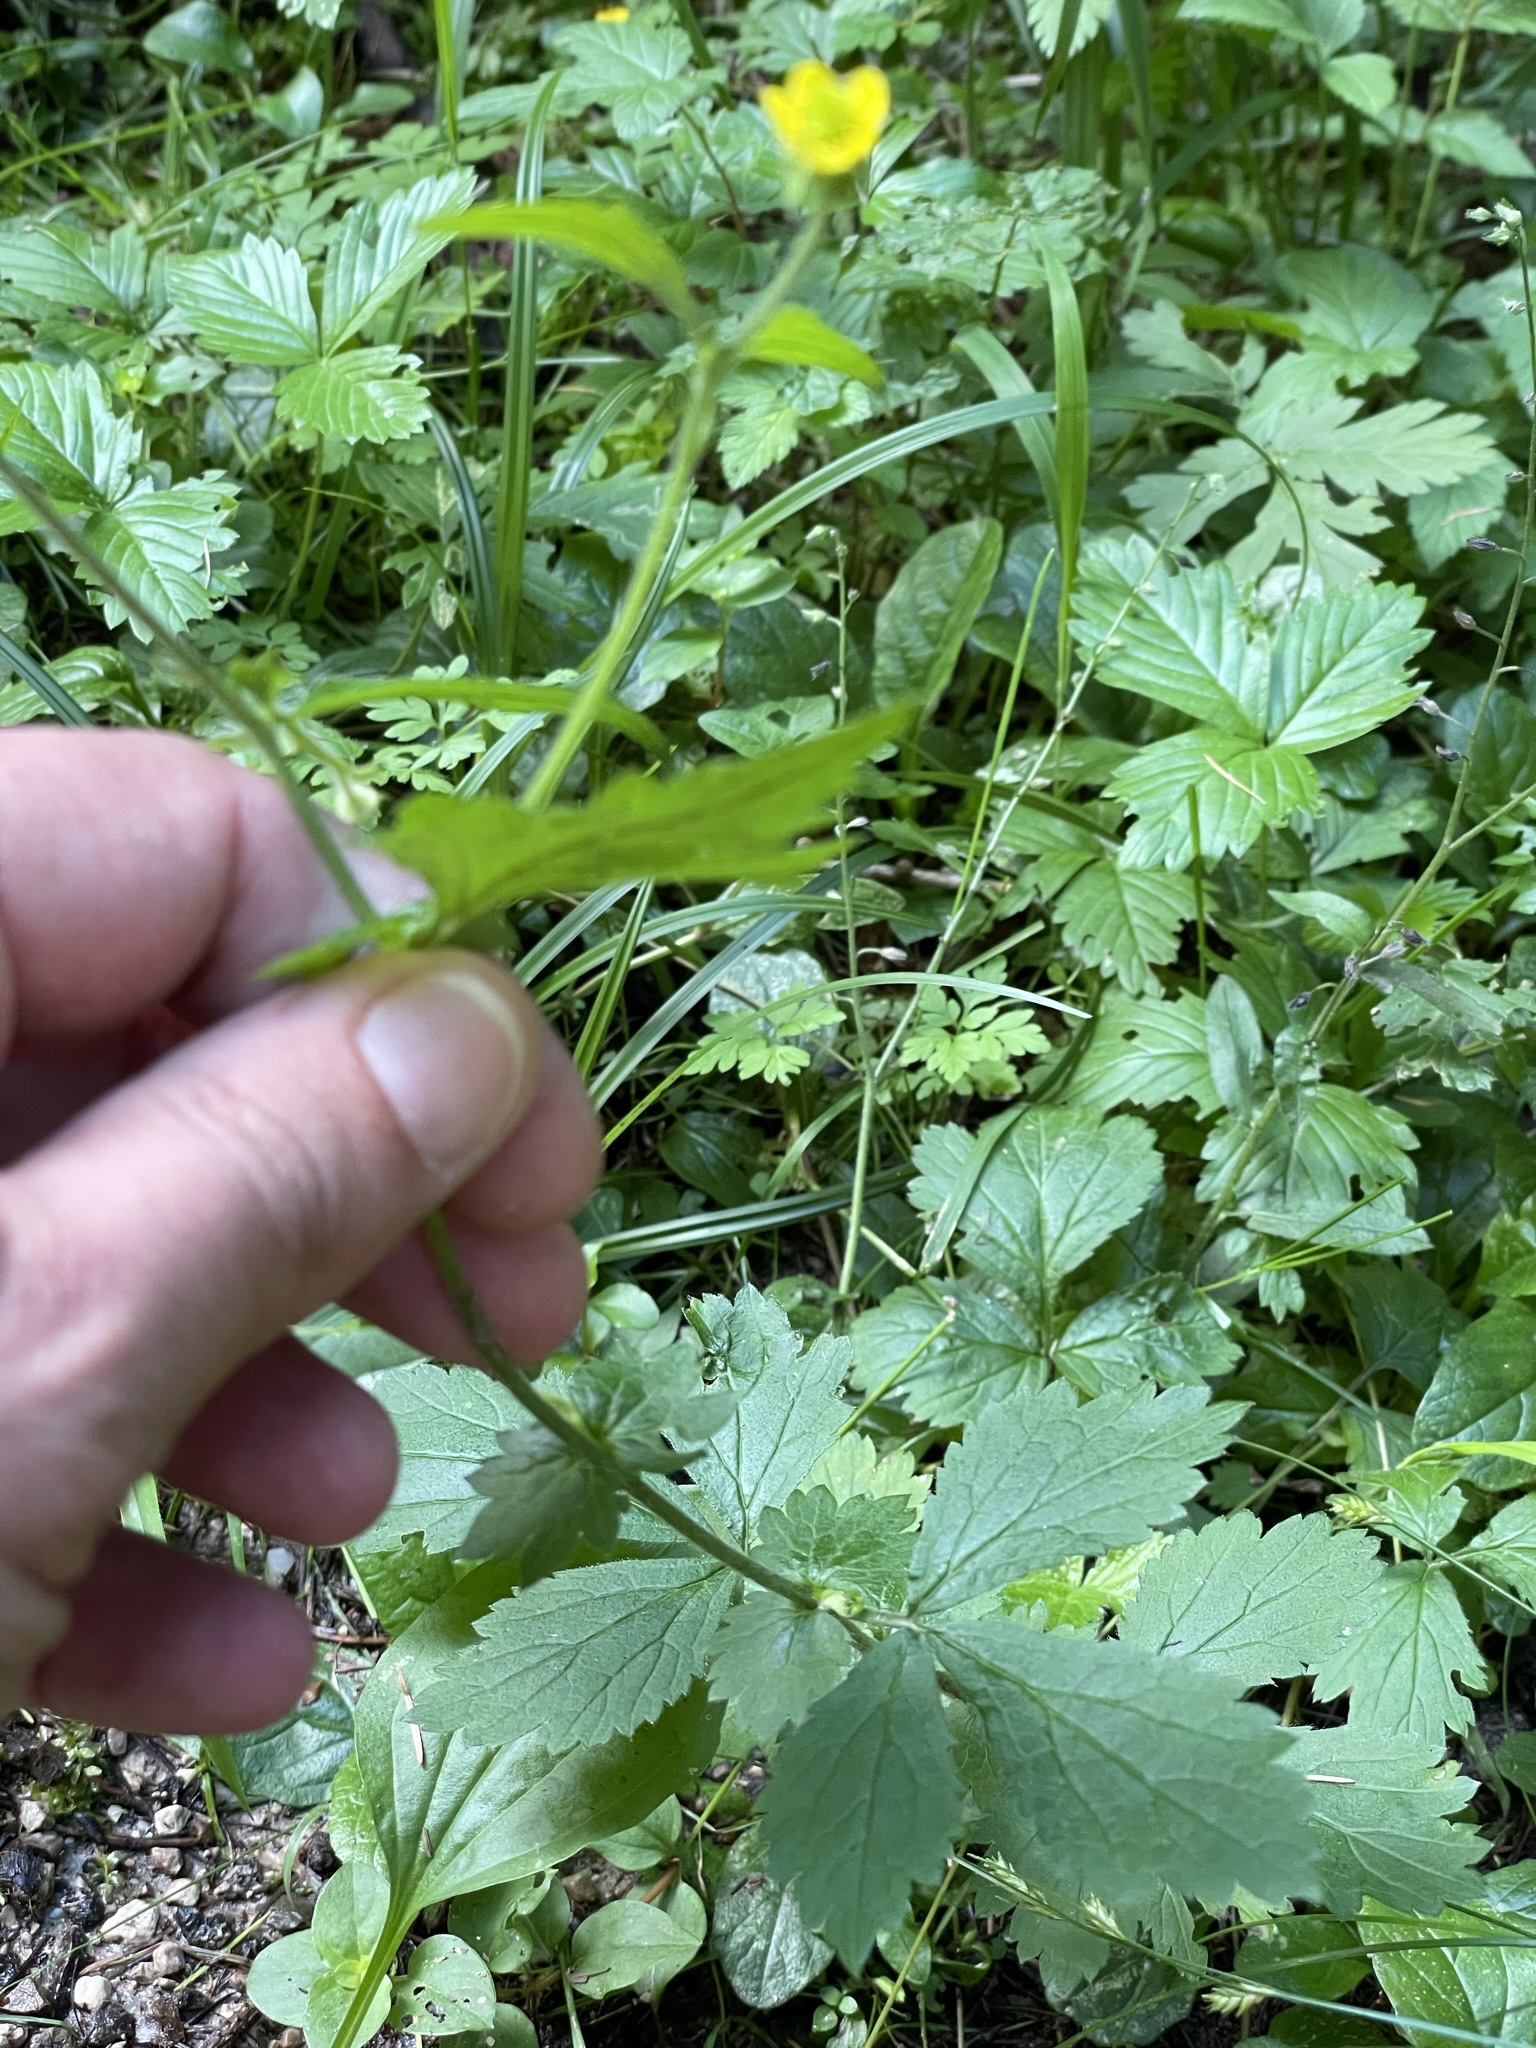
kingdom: Plantae
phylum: Tracheophyta
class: Magnoliopsida
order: Rosales
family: Rosaceae
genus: Geum
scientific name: Geum urbanum
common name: Wood avens
